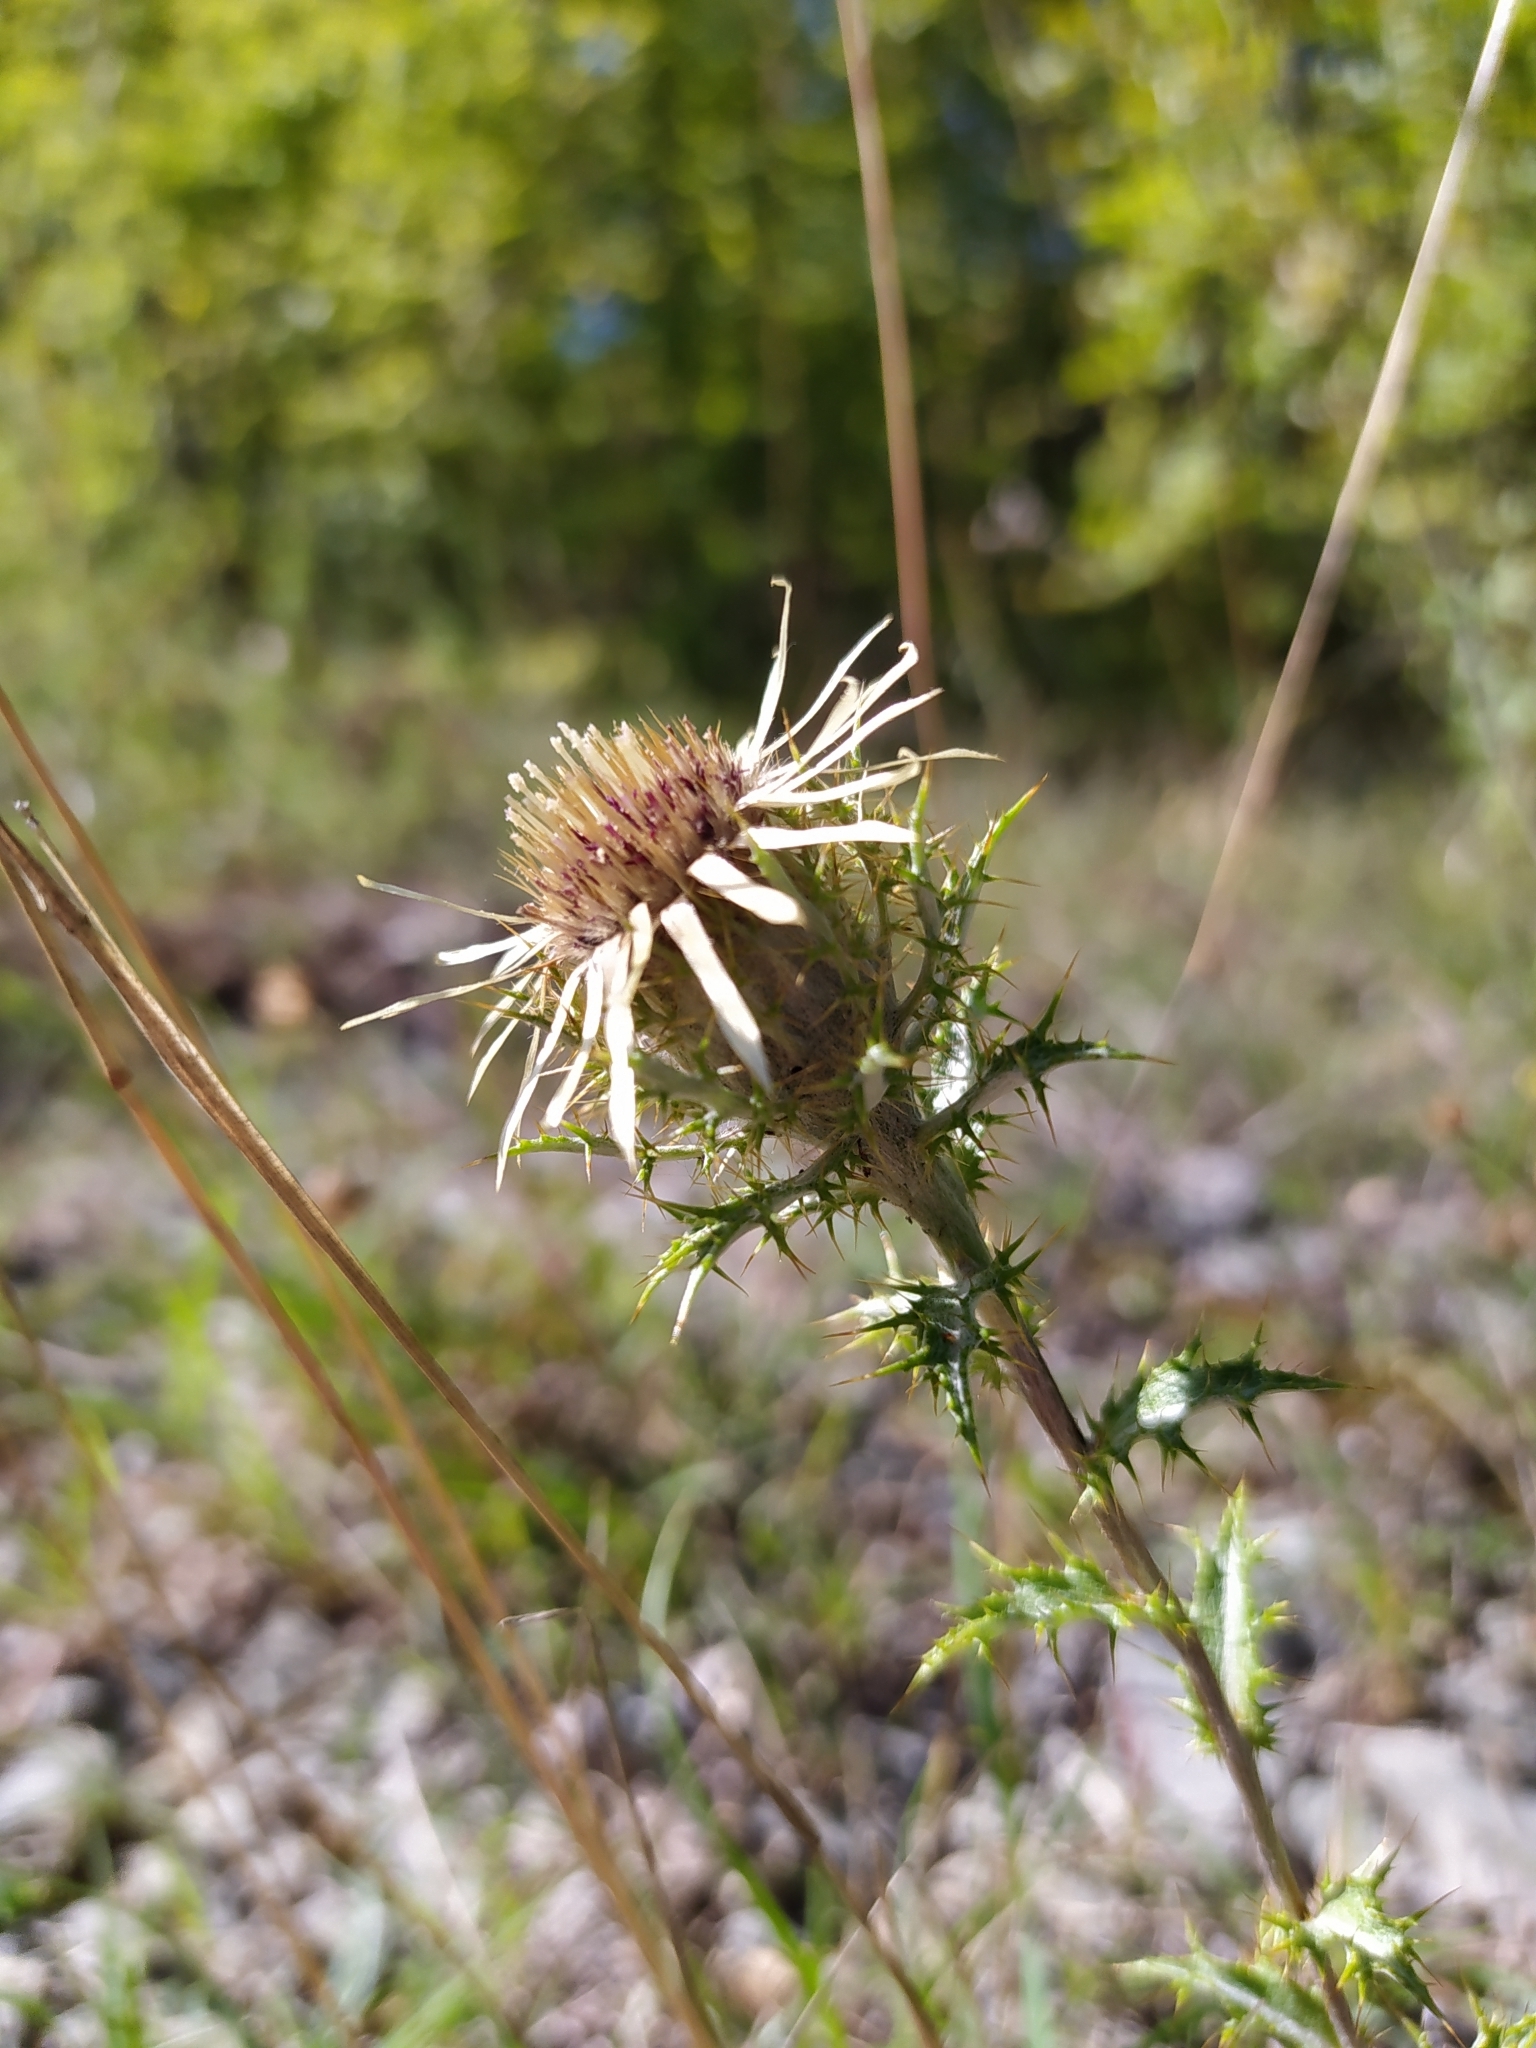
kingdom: Plantae
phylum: Tracheophyta
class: Magnoliopsida
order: Asterales
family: Asteraceae
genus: Carlina
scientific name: Carlina vulgaris
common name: Carline thistle
